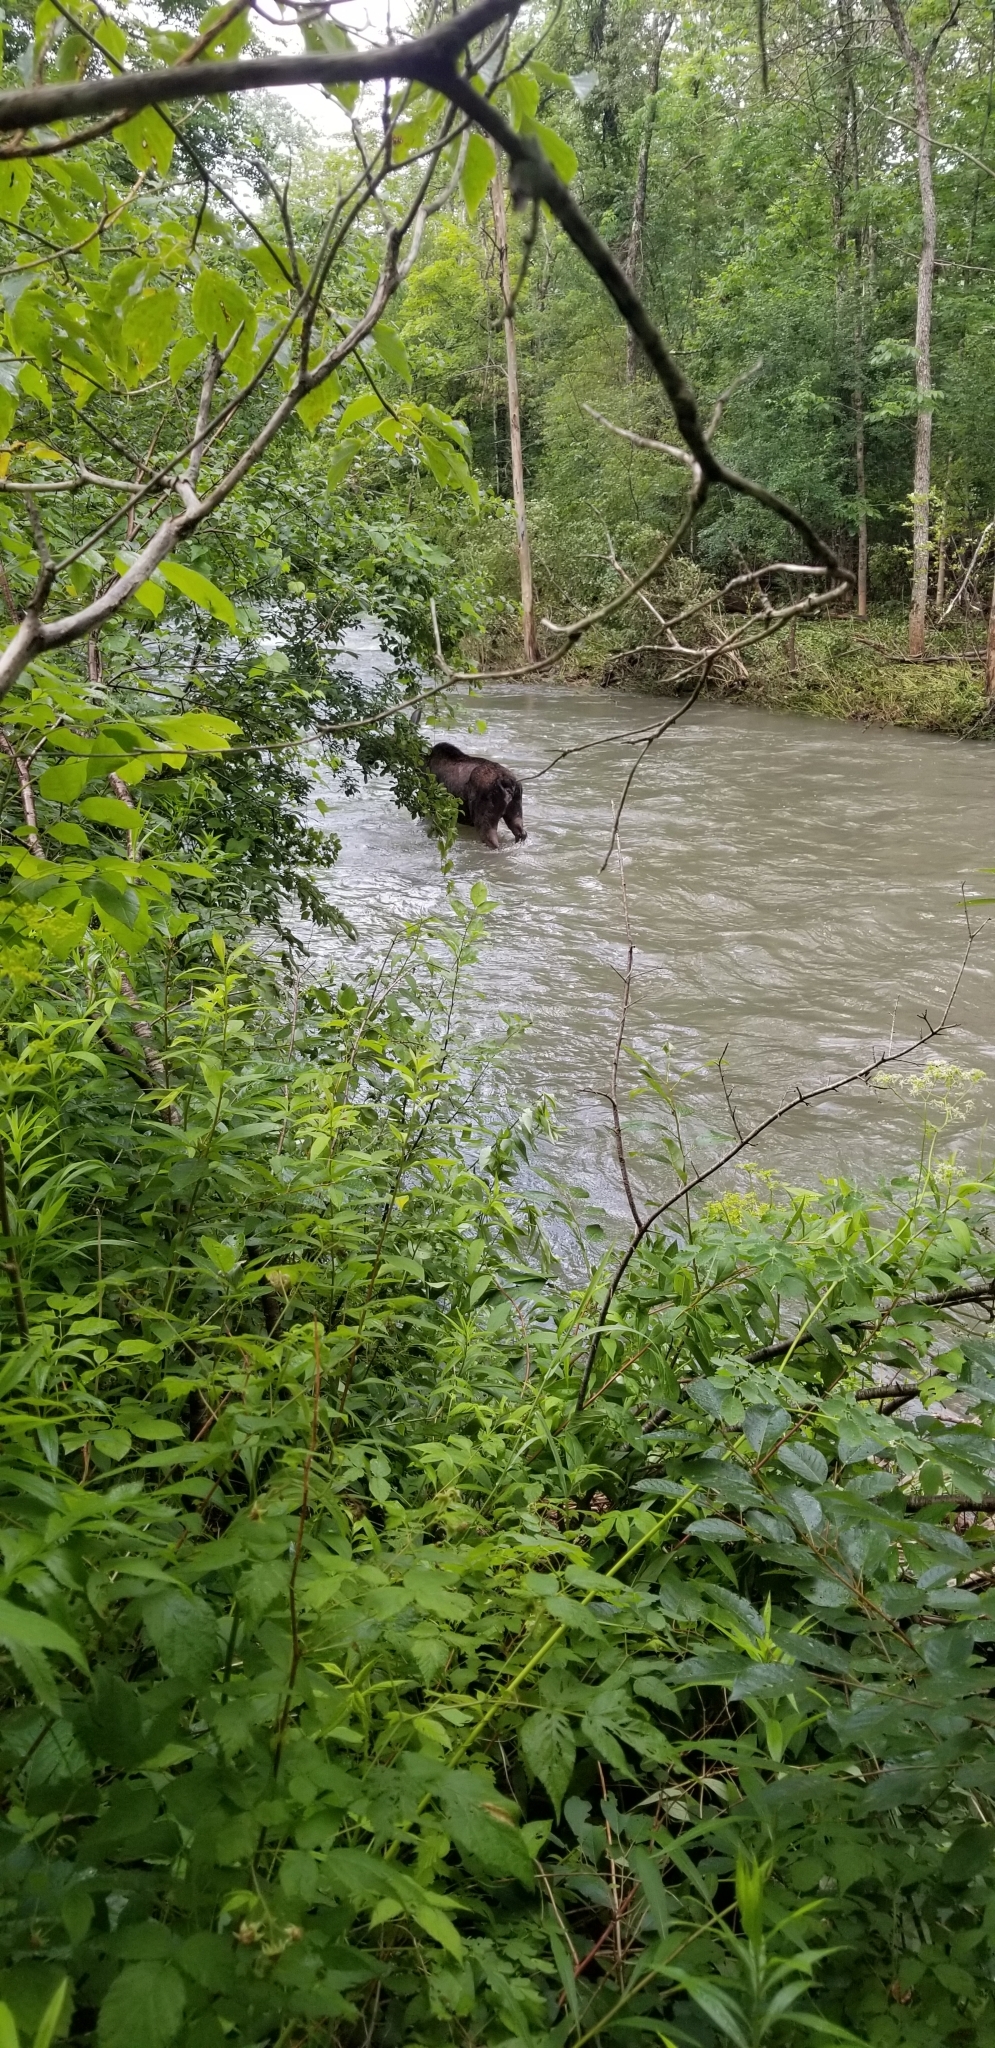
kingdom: Animalia
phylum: Chordata
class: Mammalia
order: Artiodactyla
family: Cervidae
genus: Alces
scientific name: Alces alces
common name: Moose
